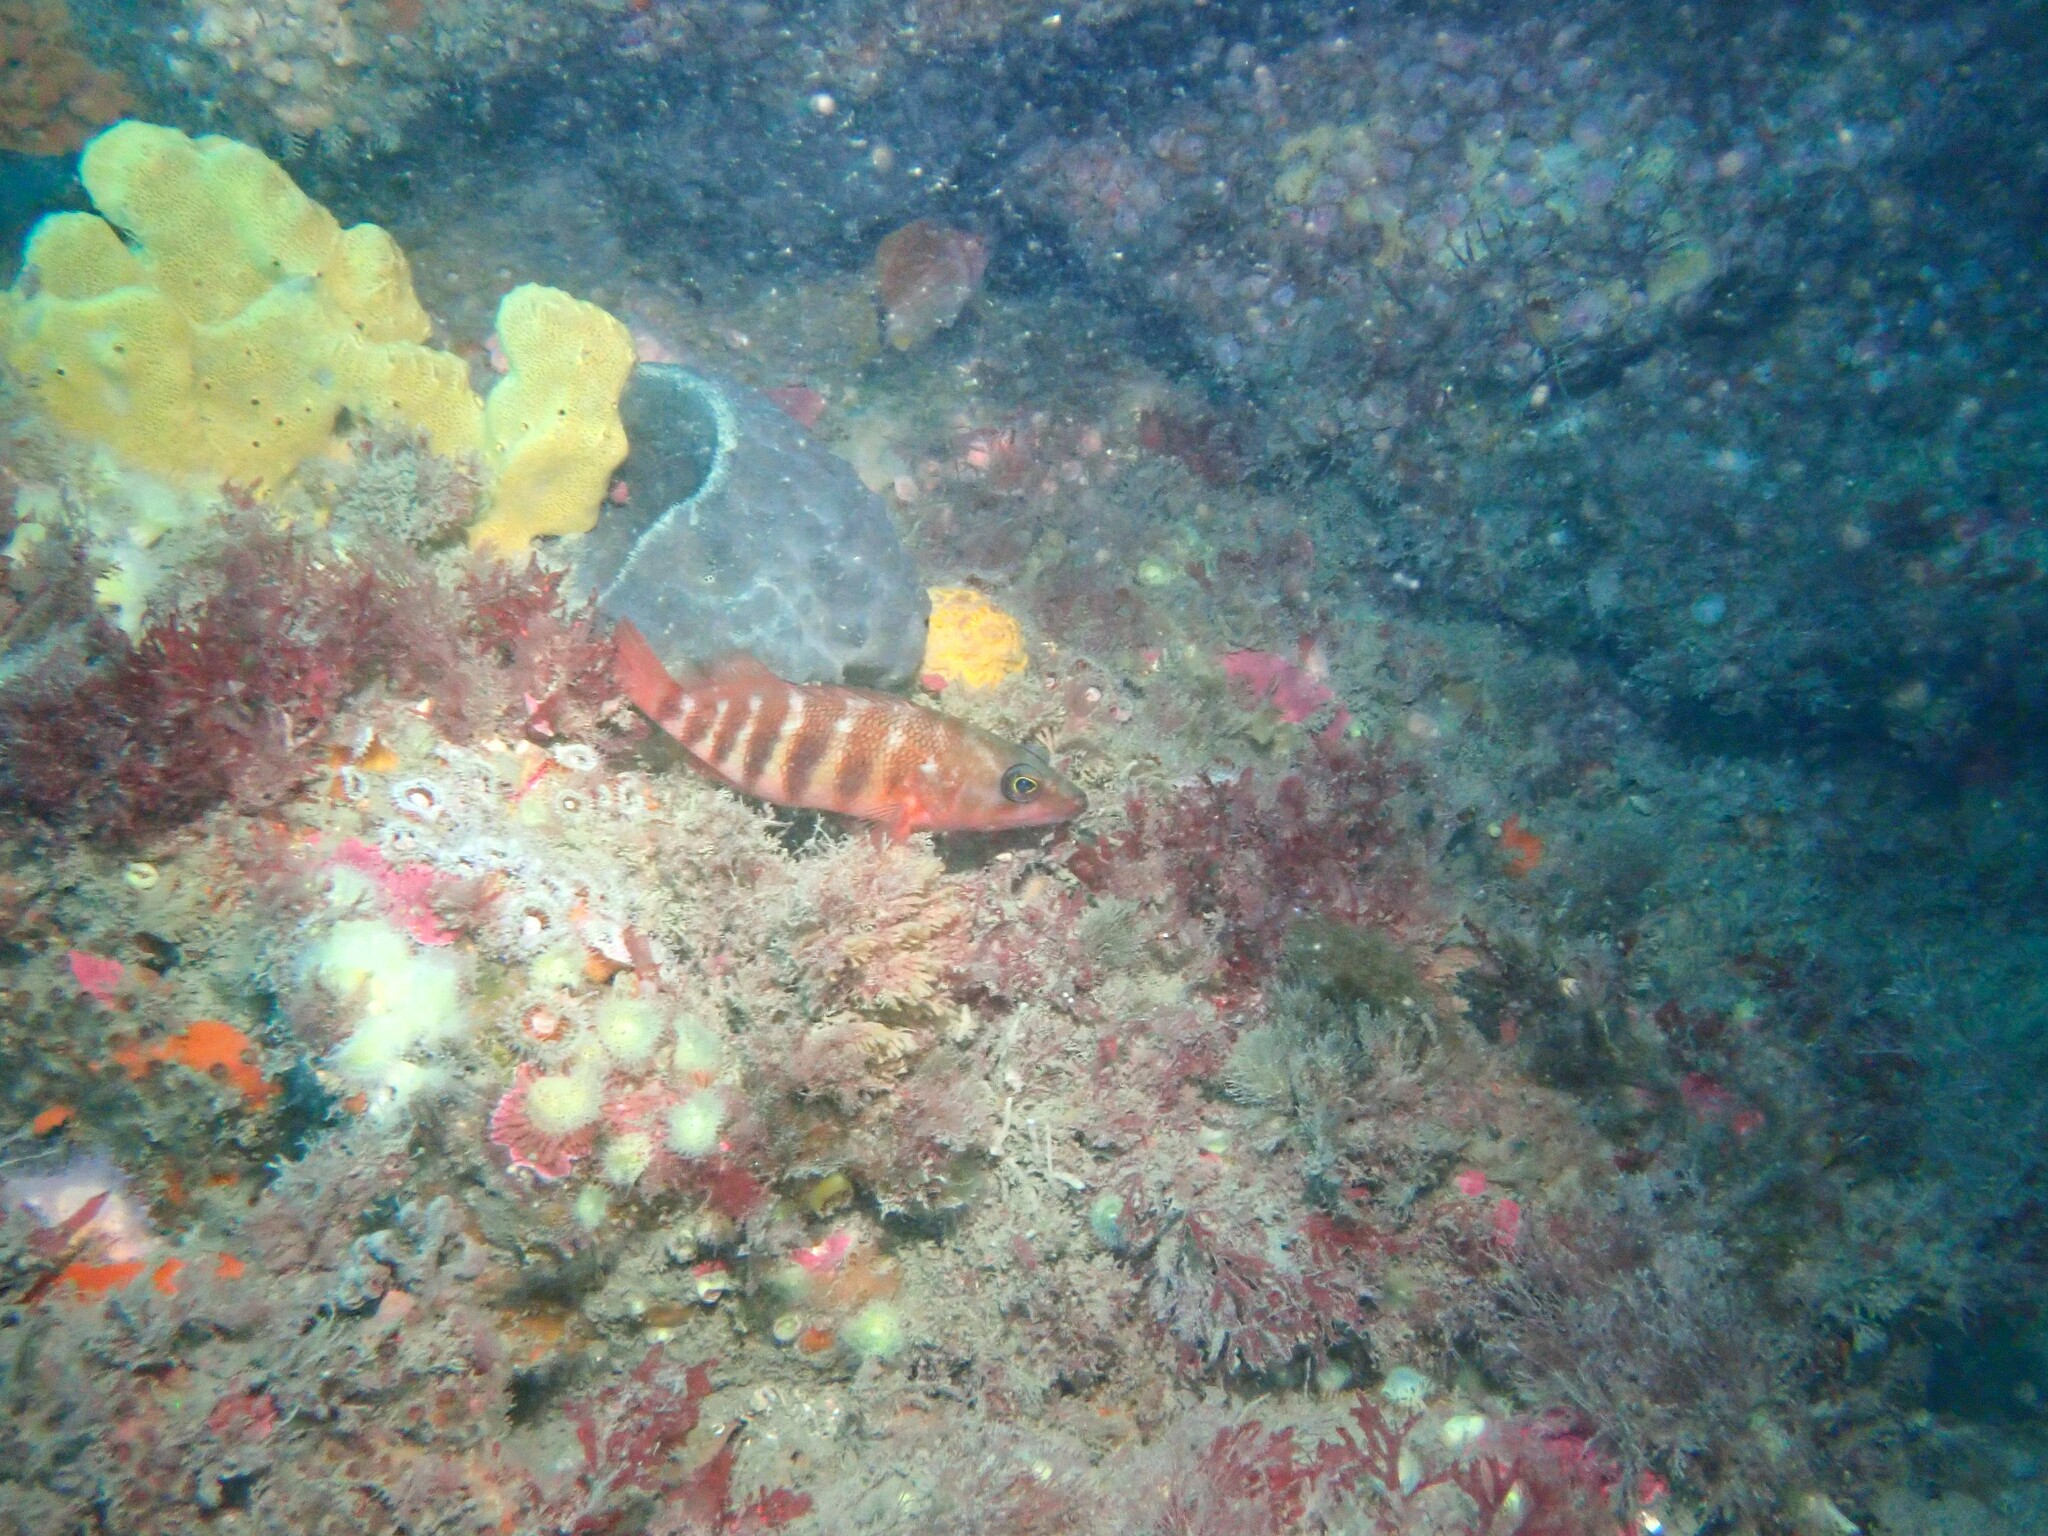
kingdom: Animalia
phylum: Chordata
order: Perciformes
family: Serranidae
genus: Hypoplectrodes
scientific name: Hypoplectrodes huntii
